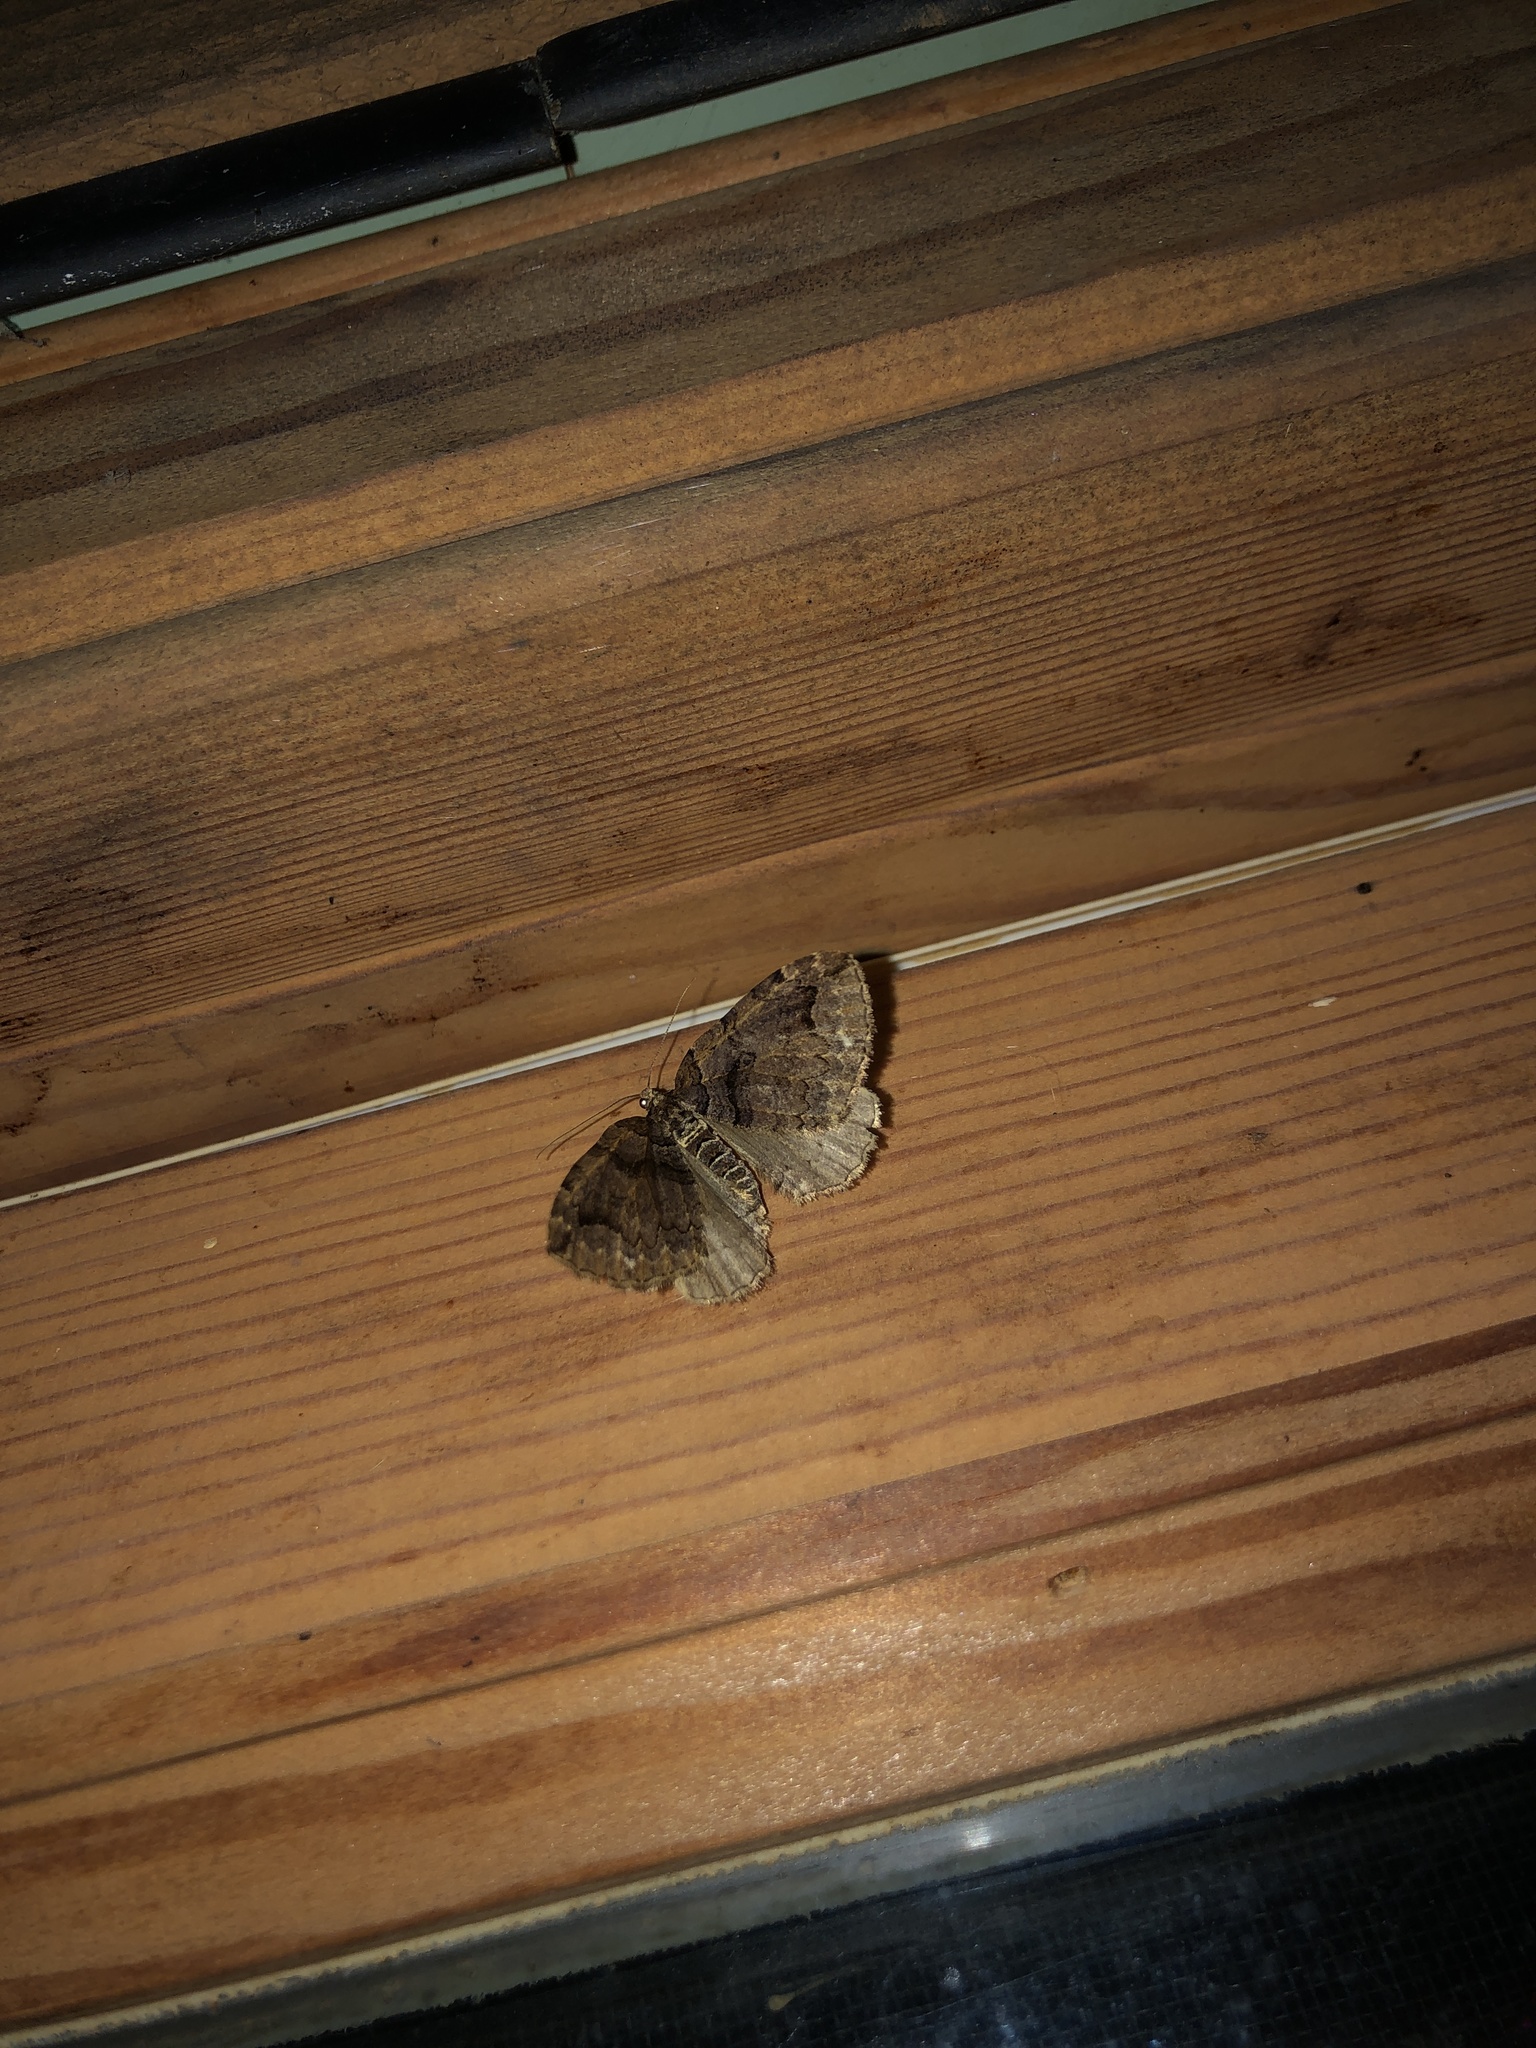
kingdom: Animalia
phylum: Arthropoda
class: Insecta
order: Lepidoptera
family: Geometridae
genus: Anticlea
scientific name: Anticlea vasiliata
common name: Variable carpet
